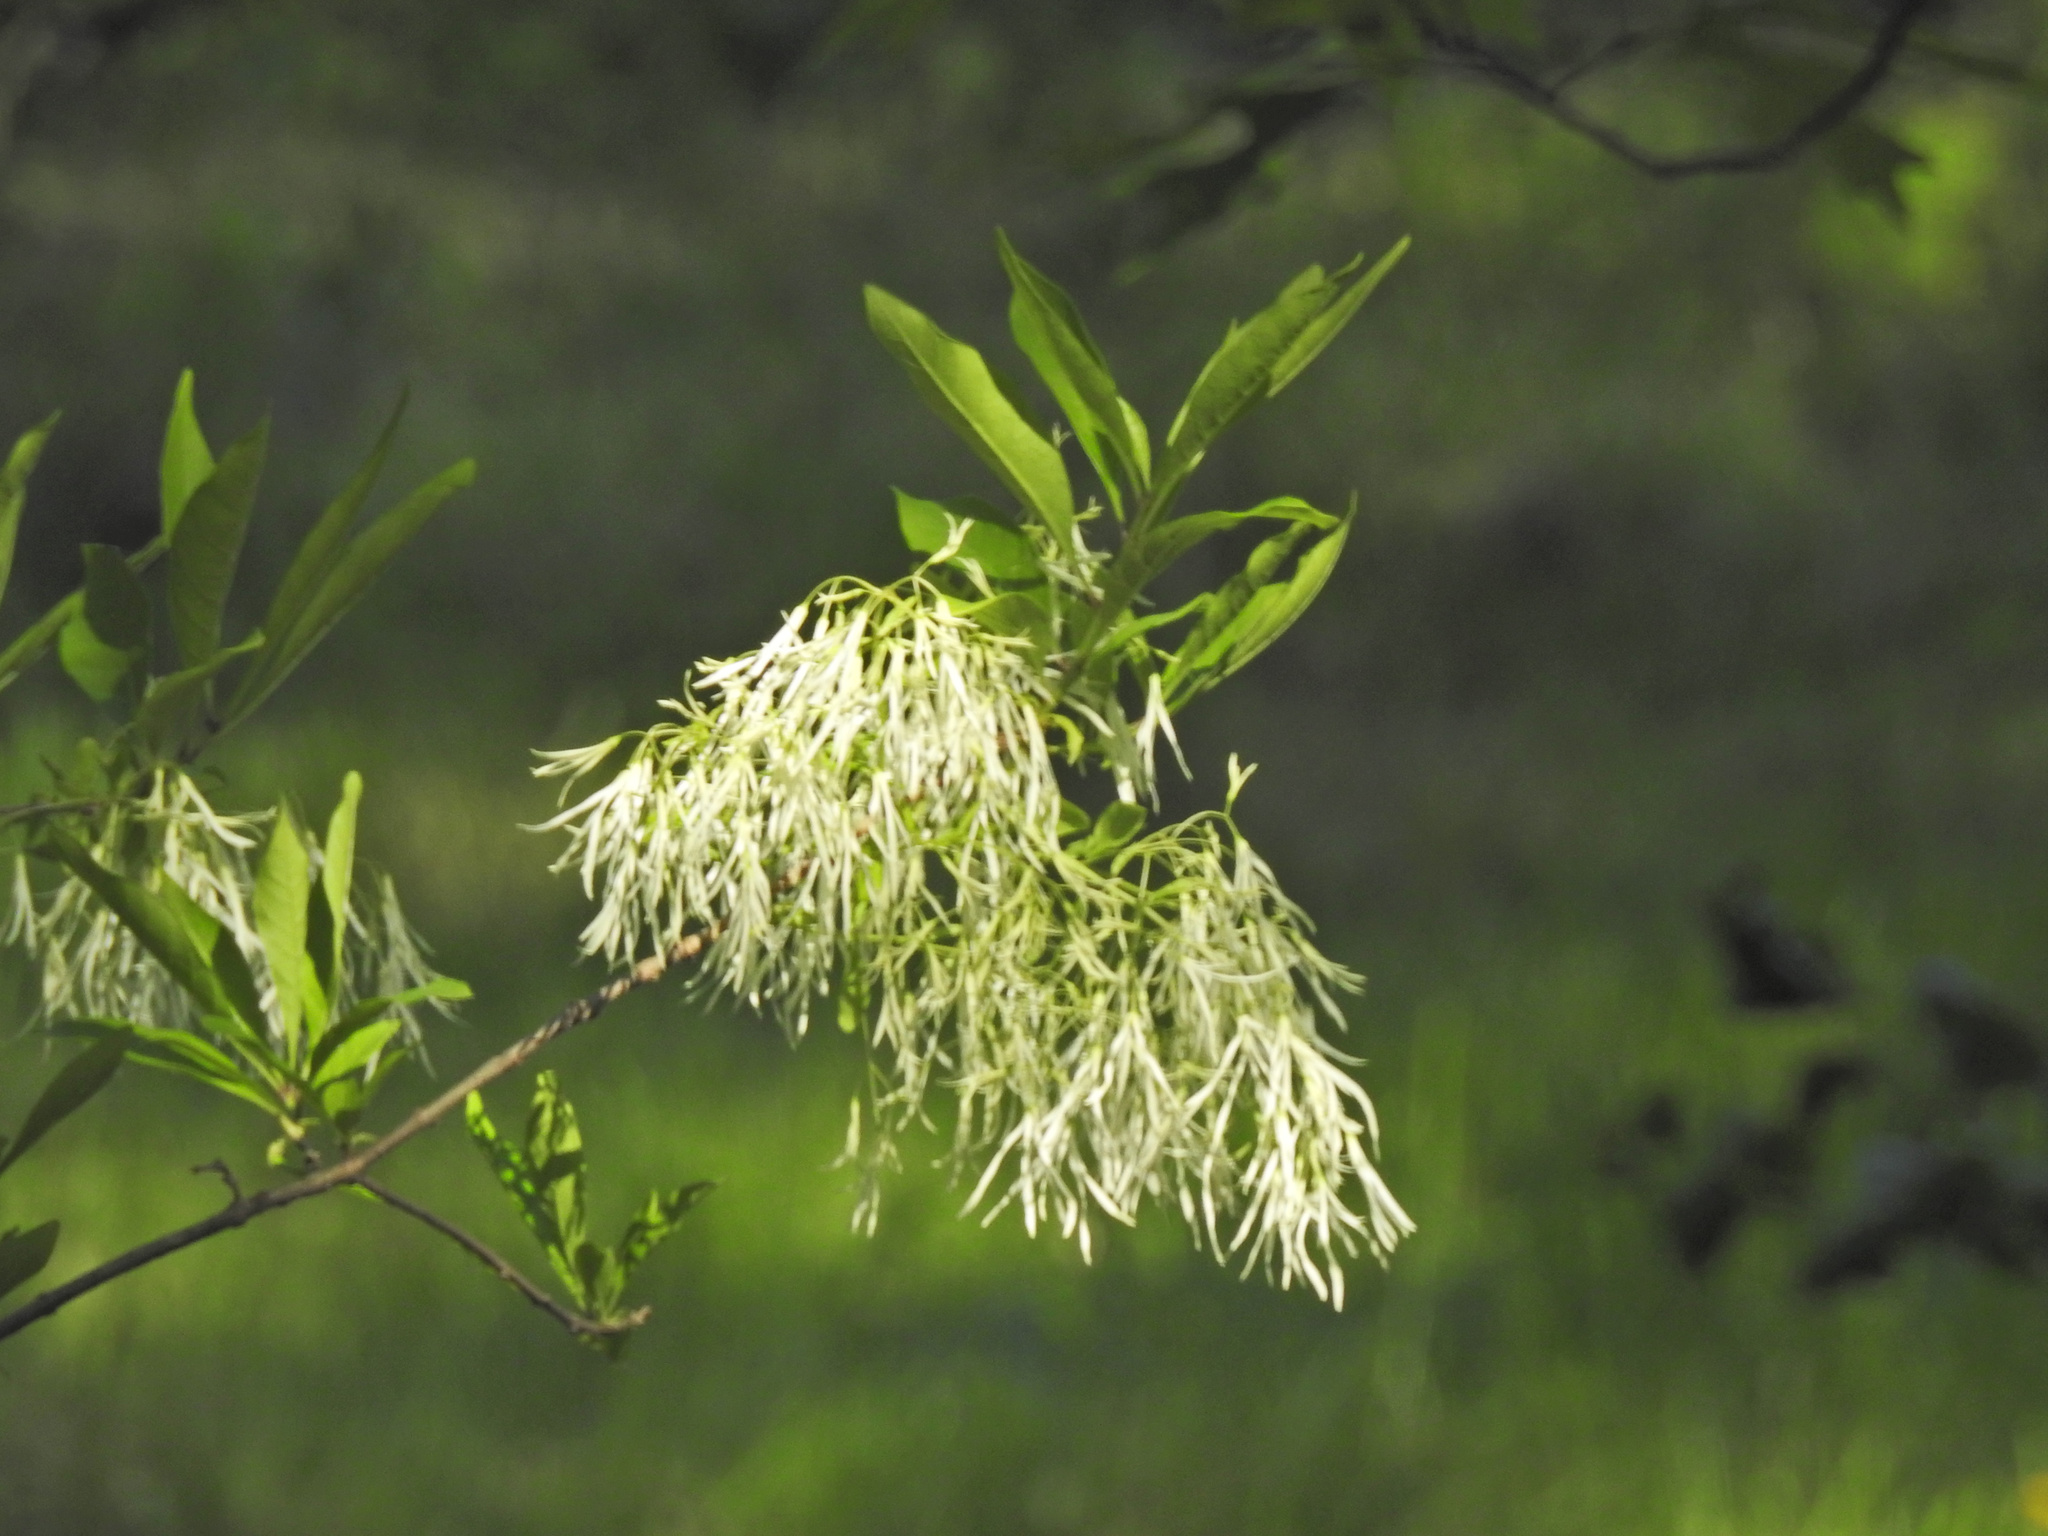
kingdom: Plantae
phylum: Tracheophyta
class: Magnoliopsida
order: Lamiales
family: Oleaceae
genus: Chionanthus
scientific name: Chionanthus virginicus
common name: American fringetree
